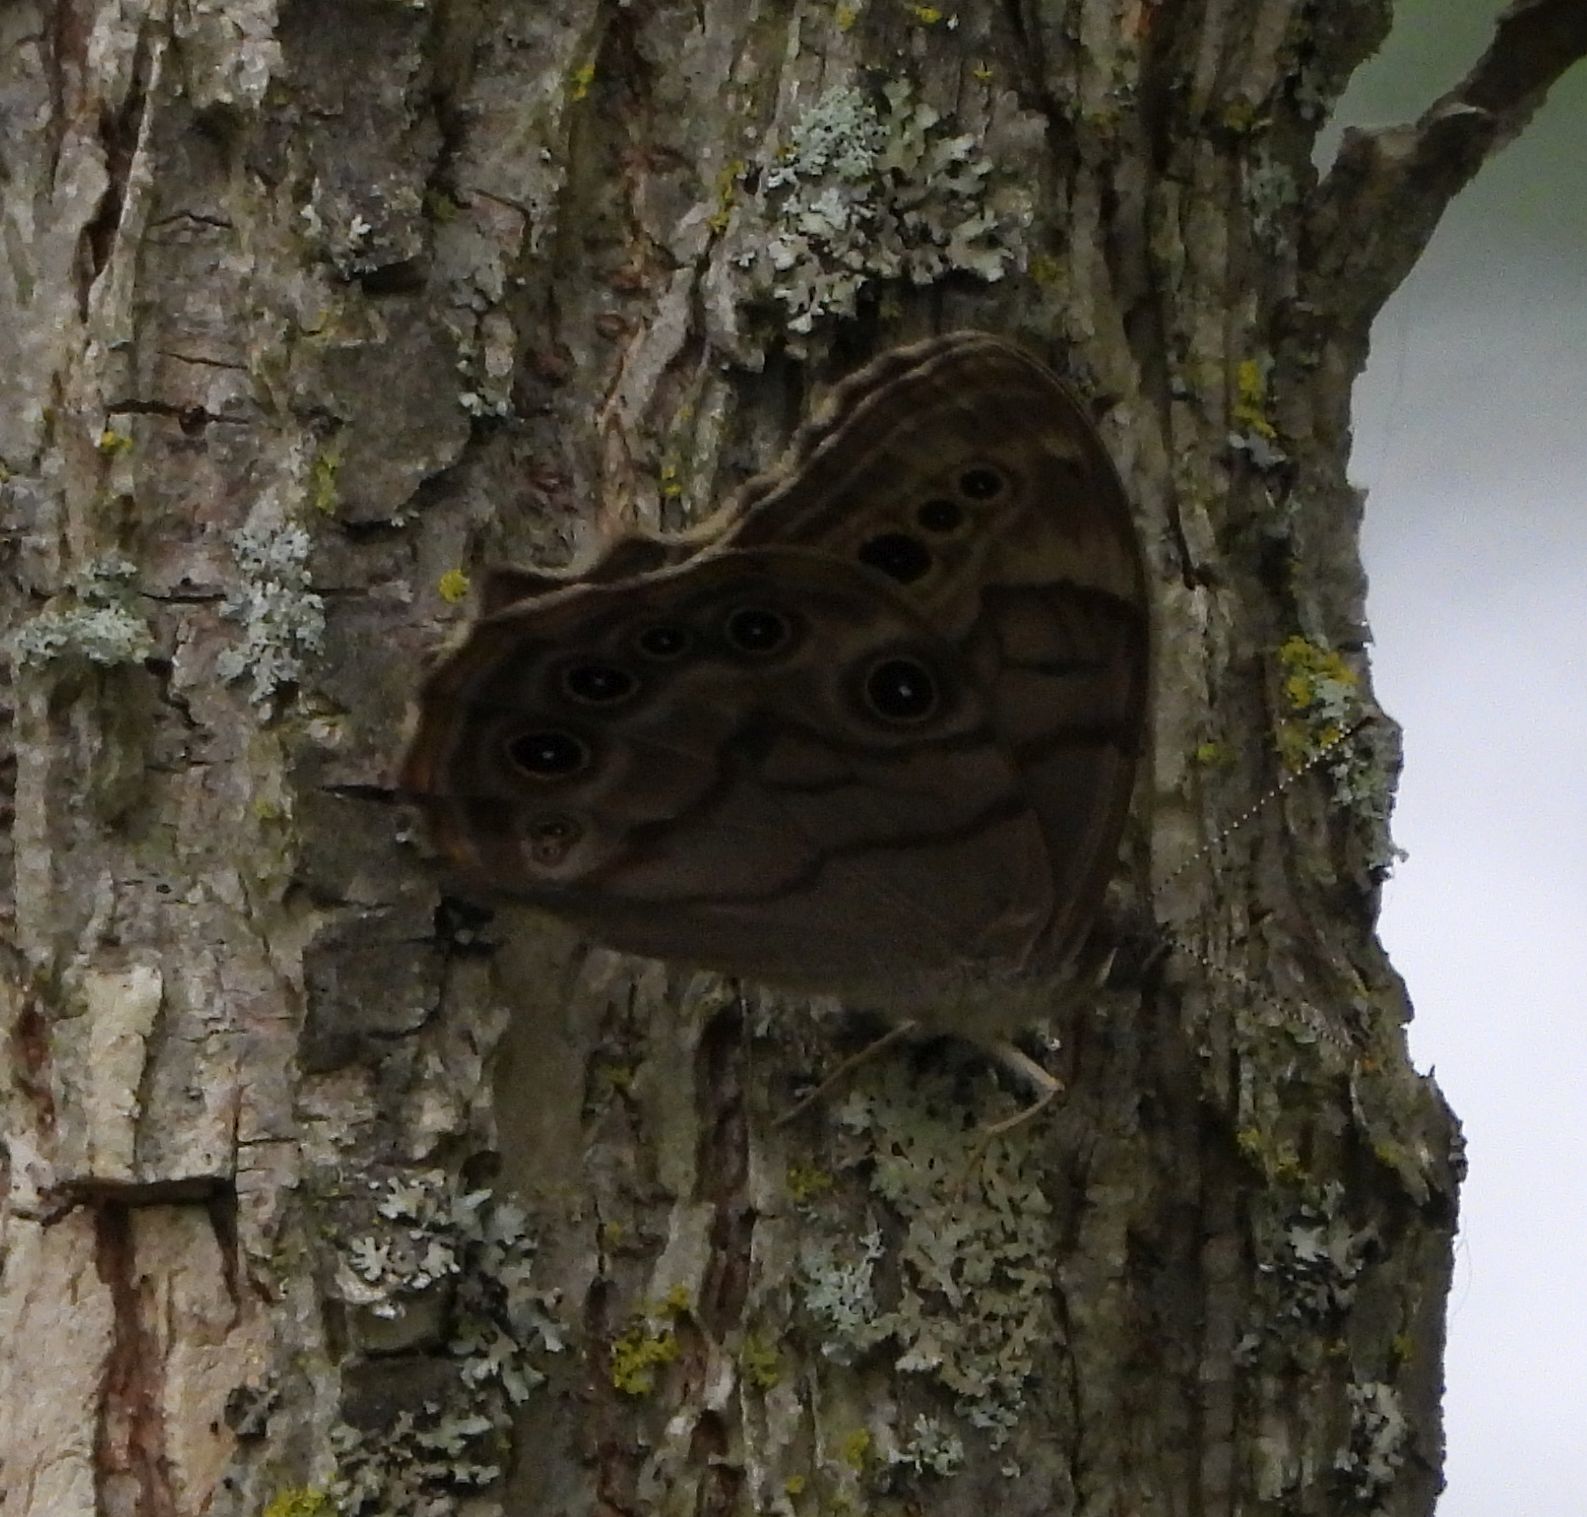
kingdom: Animalia
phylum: Arthropoda
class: Insecta
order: Lepidoptera
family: Nymphalidae
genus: Lethe
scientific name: Lethe anthedon
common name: Northern pearly-eye
